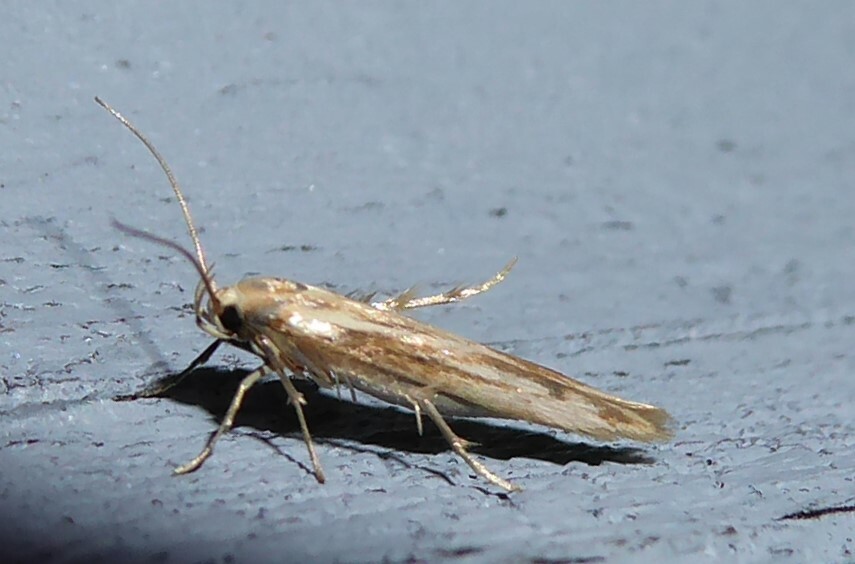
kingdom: Animalia
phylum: Arthropoda
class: Insecta
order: Lepidoptera
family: Stathmopodidae
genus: Stathmopoda
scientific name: Stathmopoda aposema
